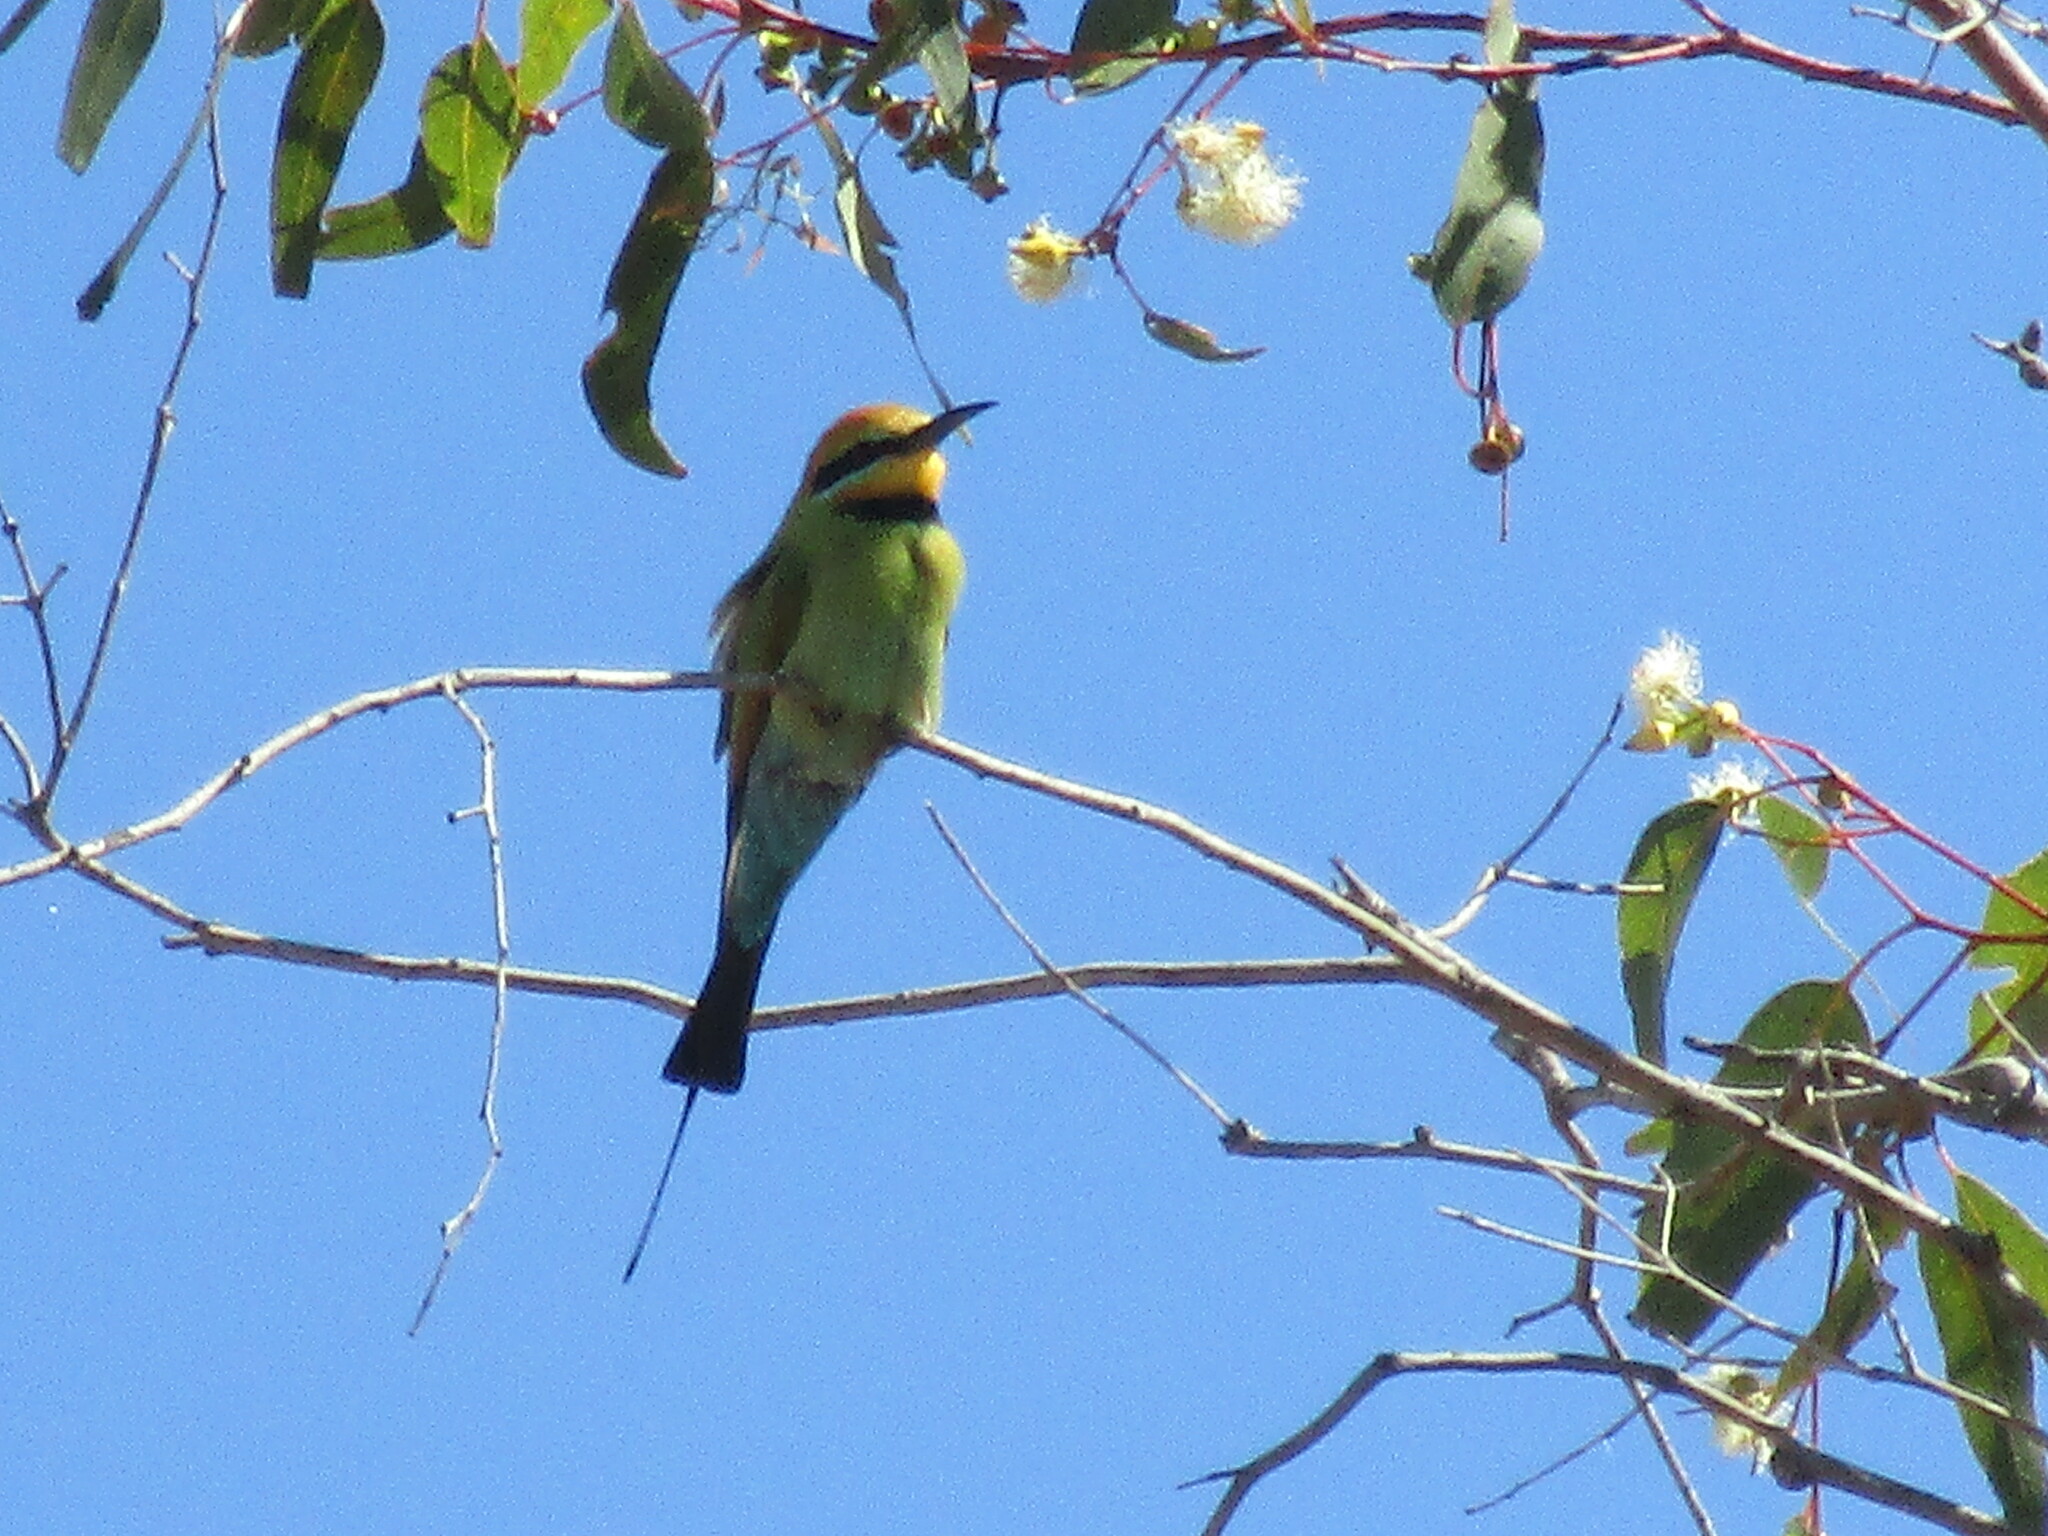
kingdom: Animalia
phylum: Chordata
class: Aves
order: Coraciiformes
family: Meropidae
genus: Merops
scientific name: Merops ornatus
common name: Rainbow bee-eater
